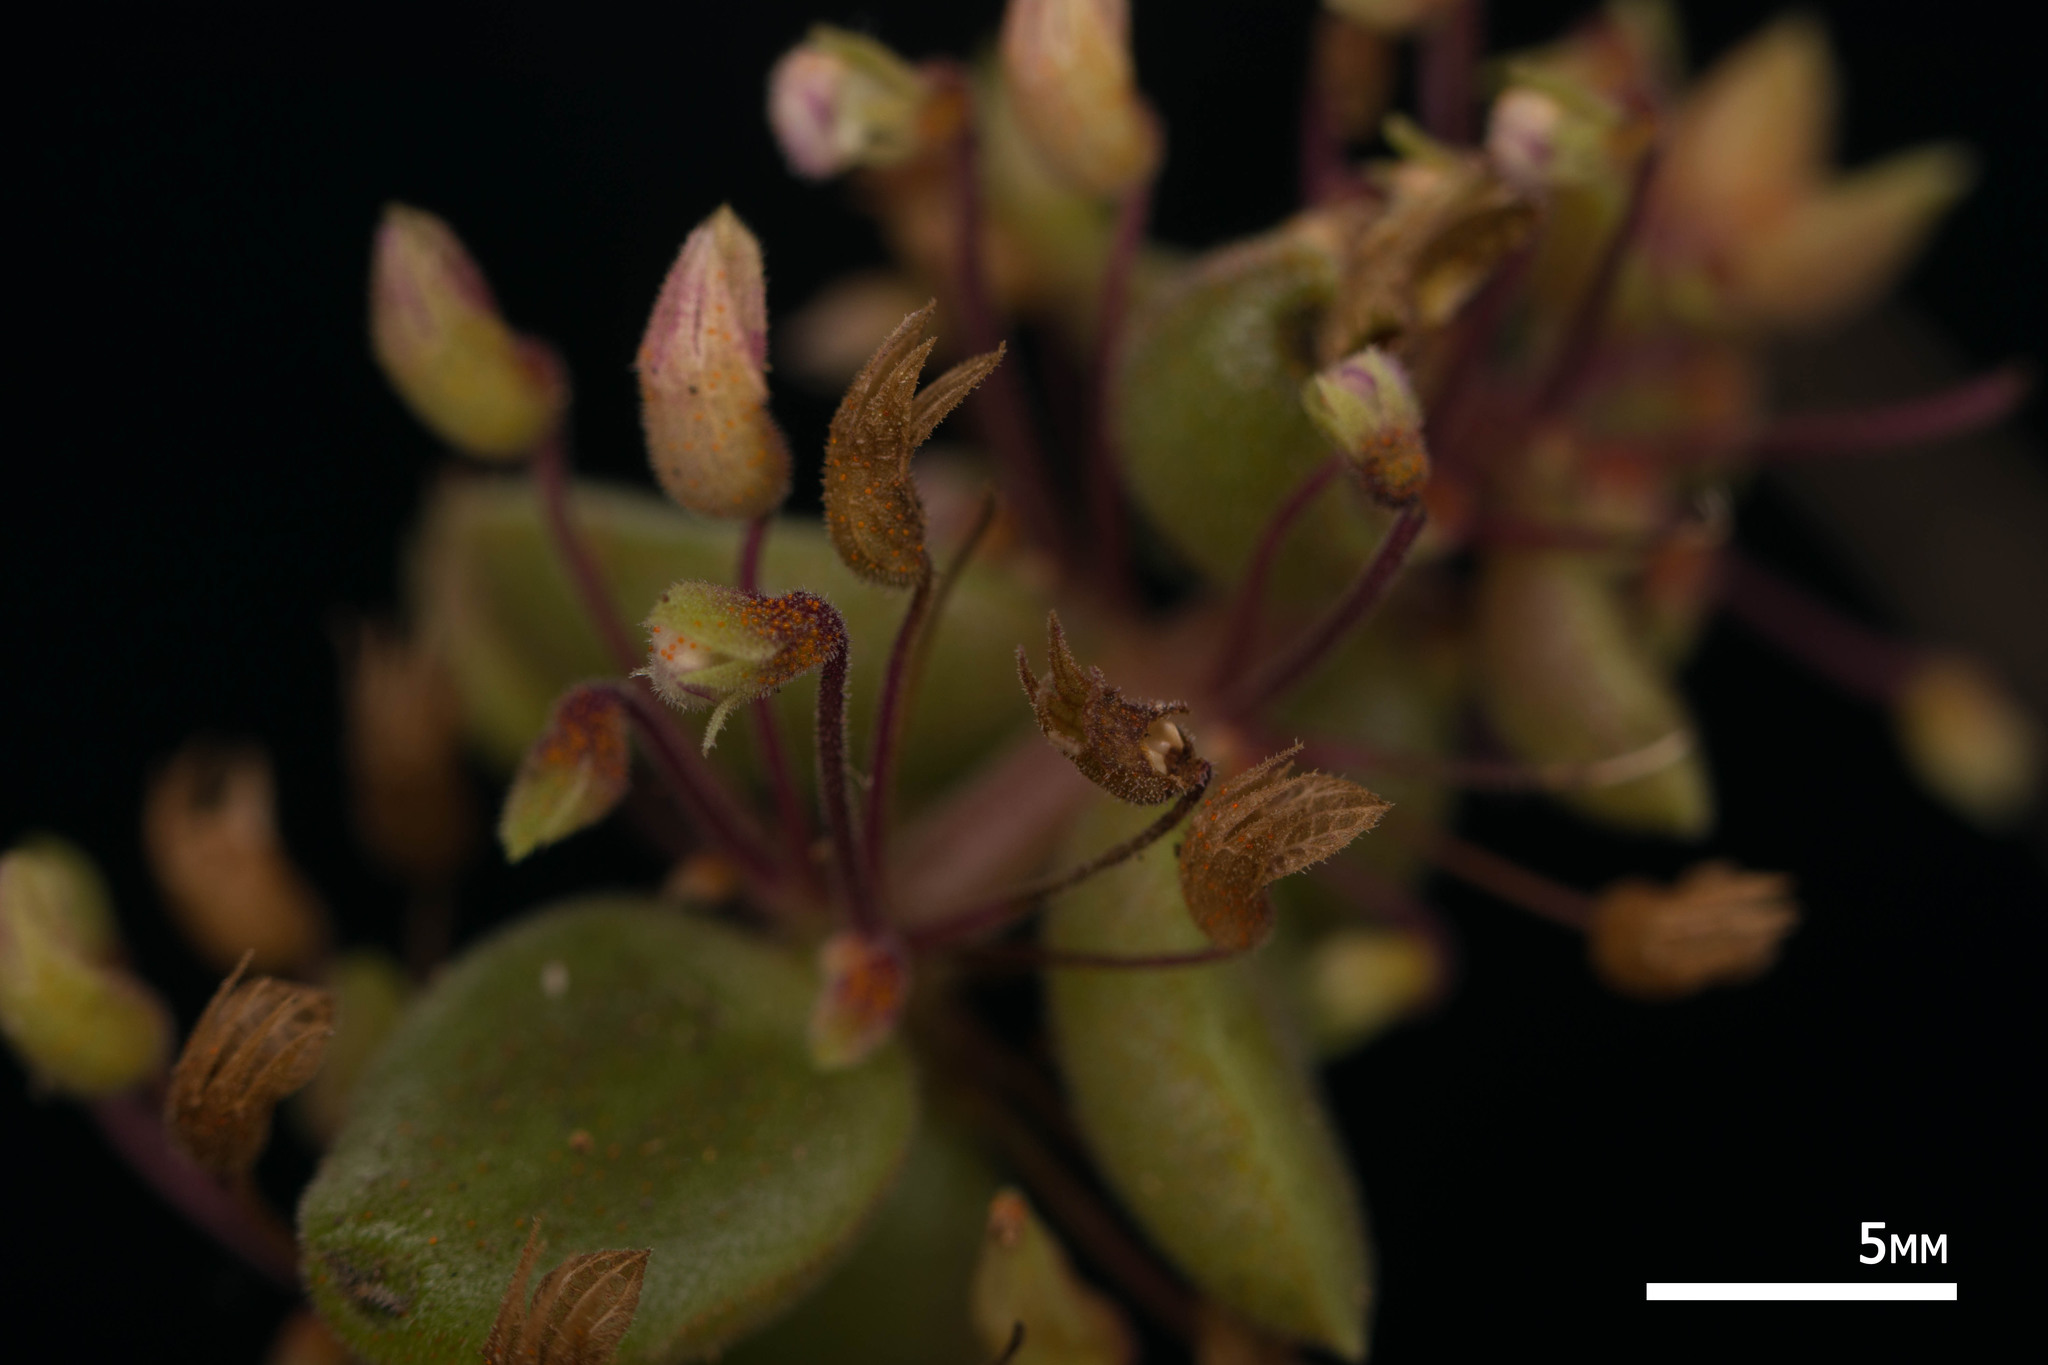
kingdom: Plantae
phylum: Tracheophyta
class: Magnoliopsida
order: Lamiales
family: Lamiaceae
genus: Coleus
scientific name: Coleus prostratus
